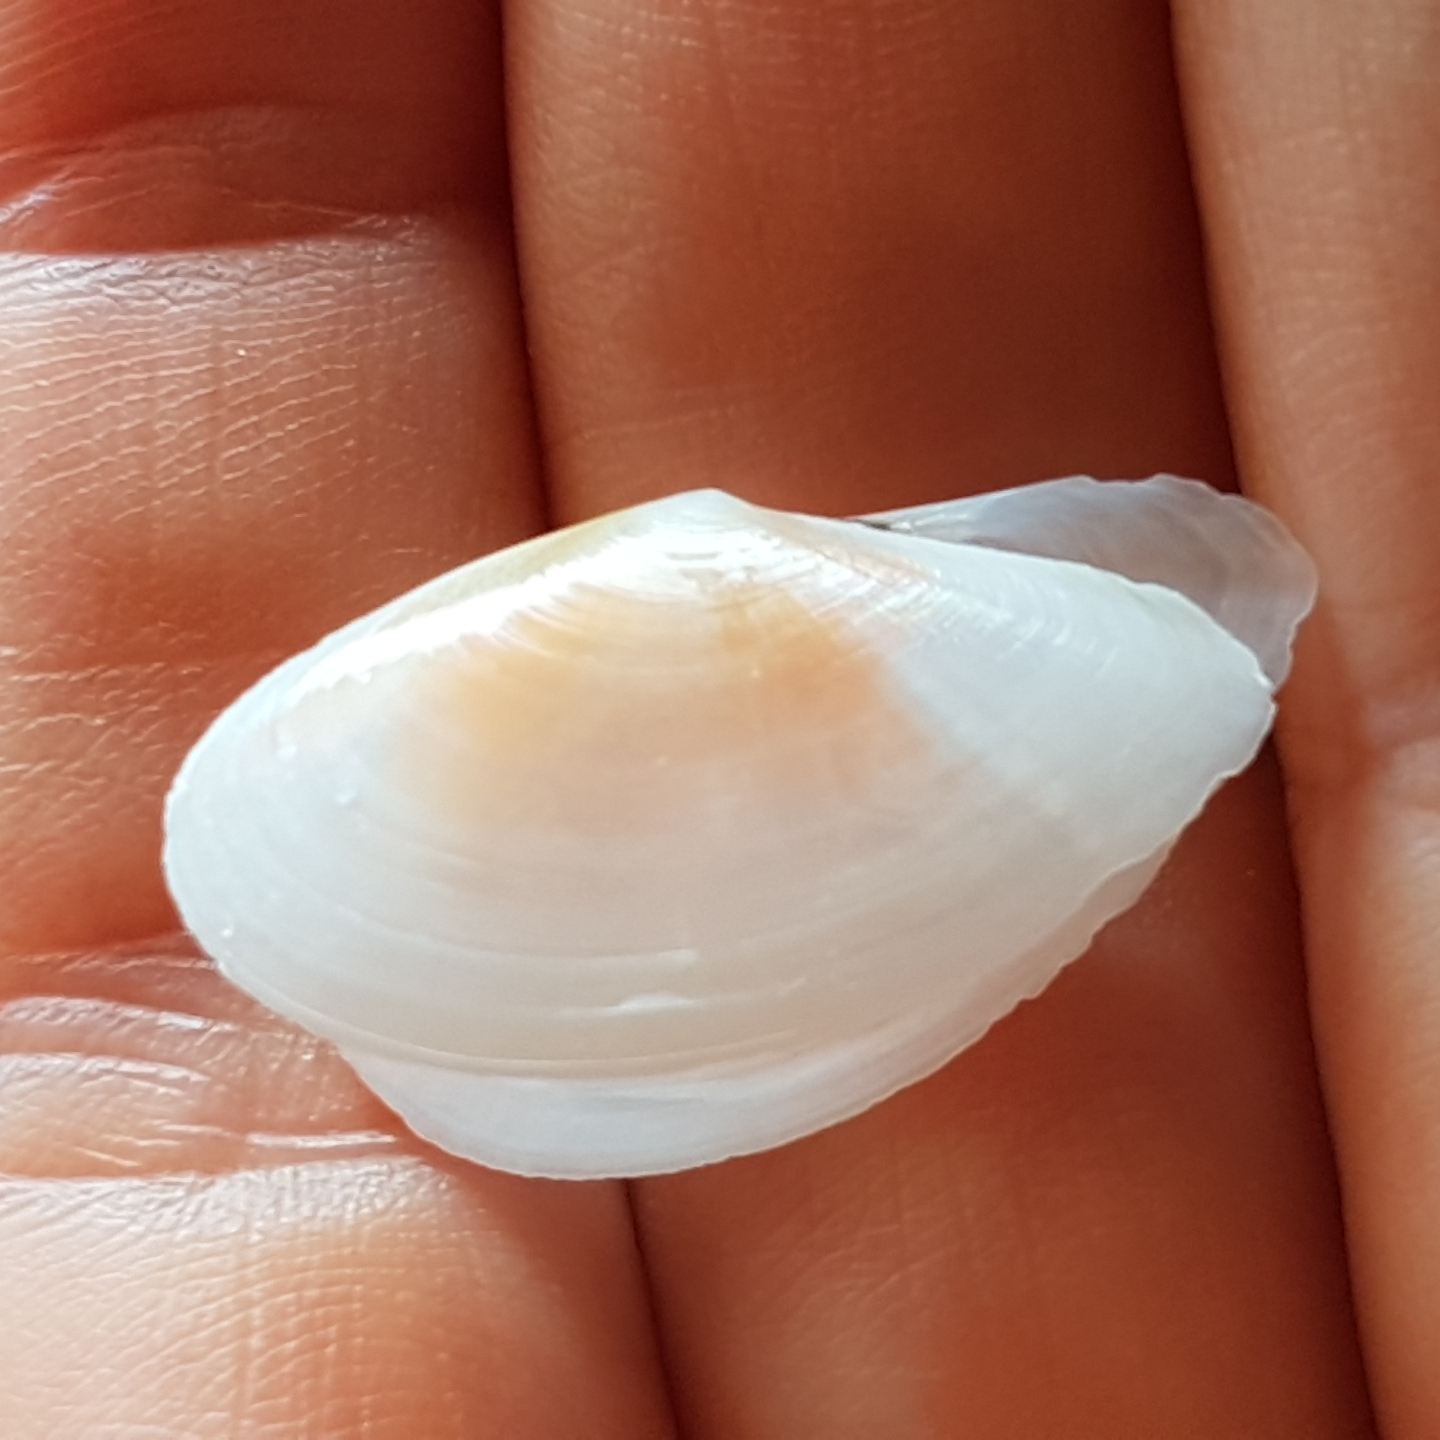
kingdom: Animalia
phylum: Mollusca
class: Bivalvia
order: Cardiida
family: Tellinidae
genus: Bosemprella
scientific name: Bosemprella incarnata
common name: Red tellin
